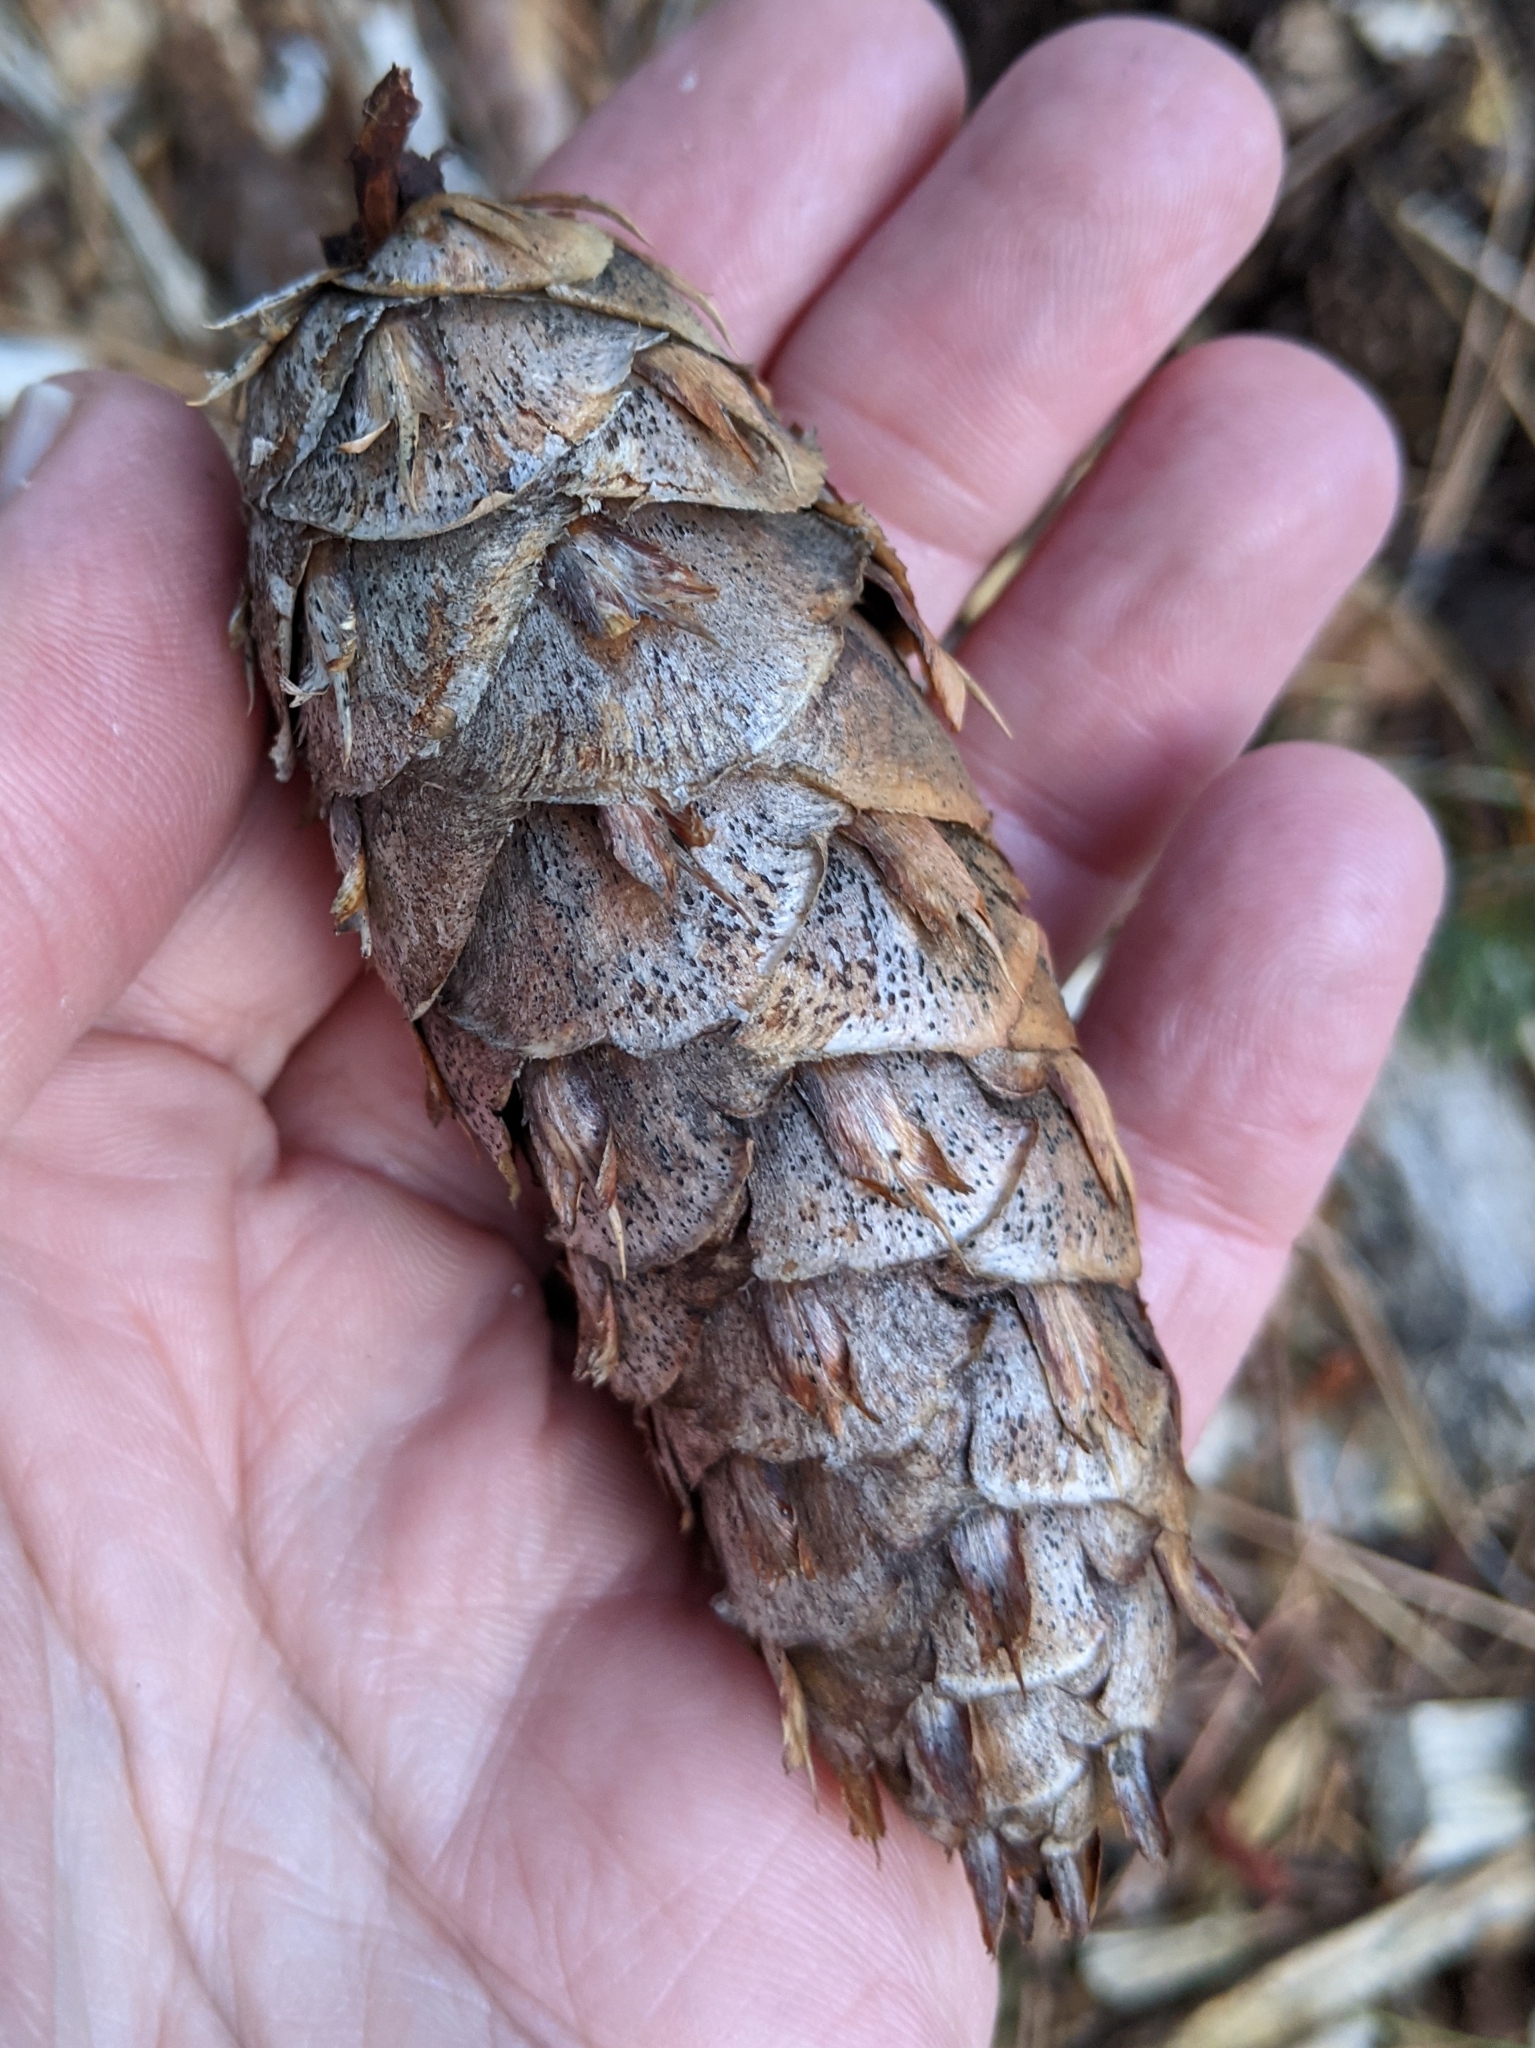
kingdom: Plantae
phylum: Tracheophyta
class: Pinopsida
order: Pinales
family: Pinaceae
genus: Pseudotsuga
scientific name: Pseudotsuga menziesii
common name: Douglas fir
